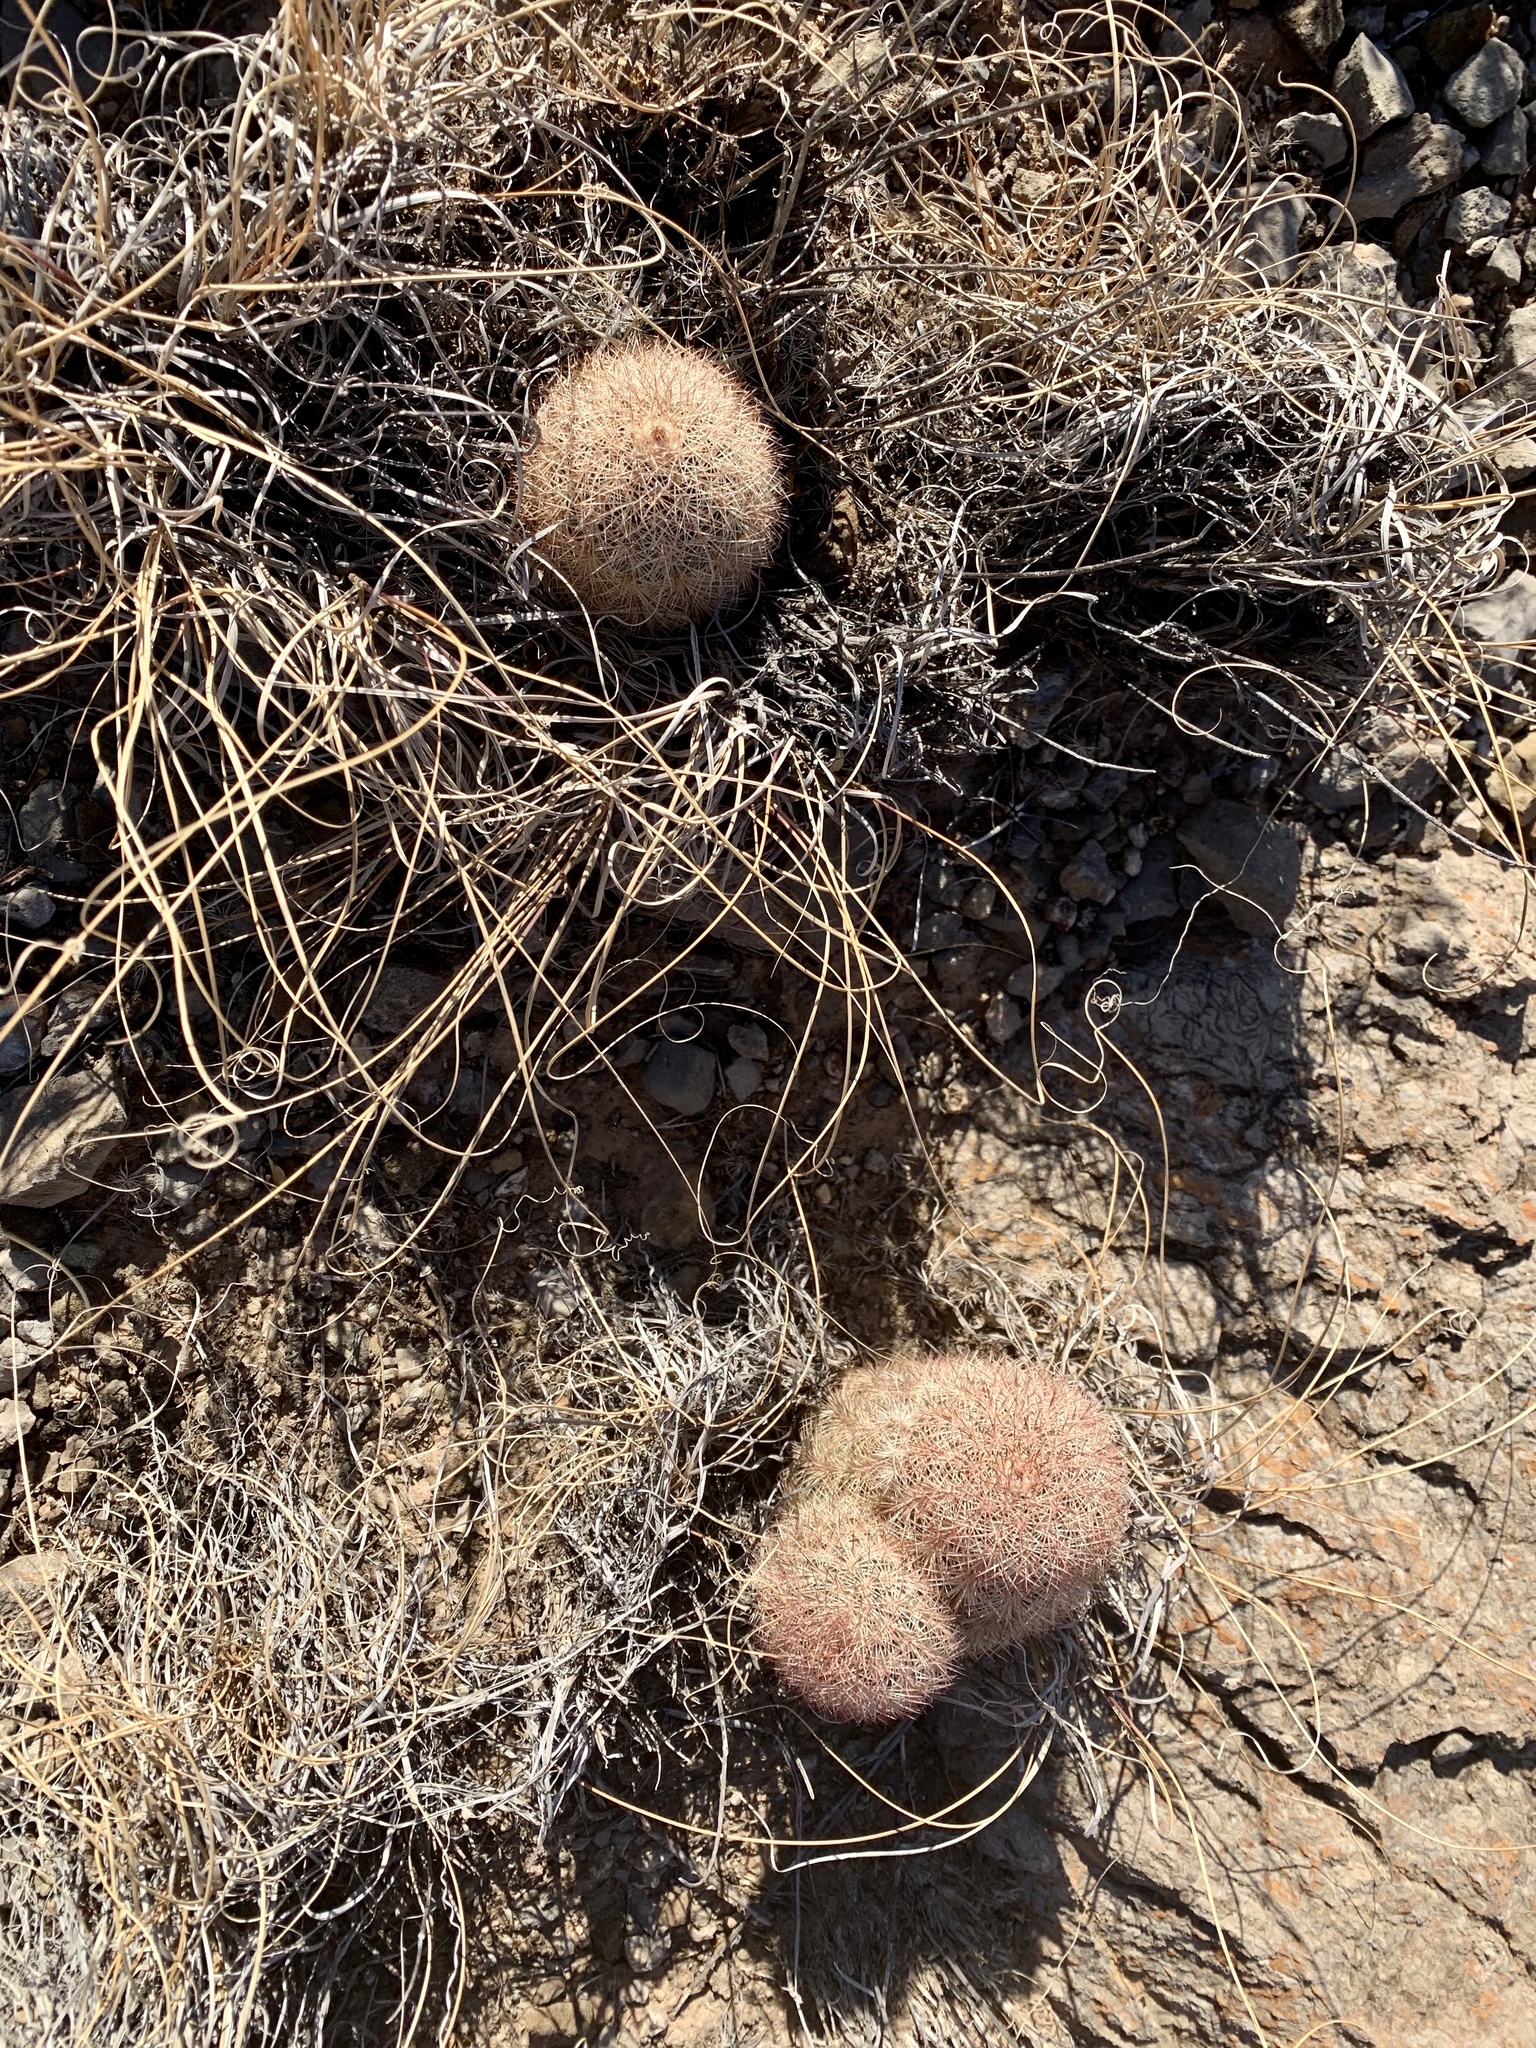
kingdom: Plantae
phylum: Tracheophyta
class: Magnoliopsida
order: Caryophyllales
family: Cactaceae
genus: Echinocereus
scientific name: Echinocereus dasyacanthus
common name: Spiny hedgehog cactus
